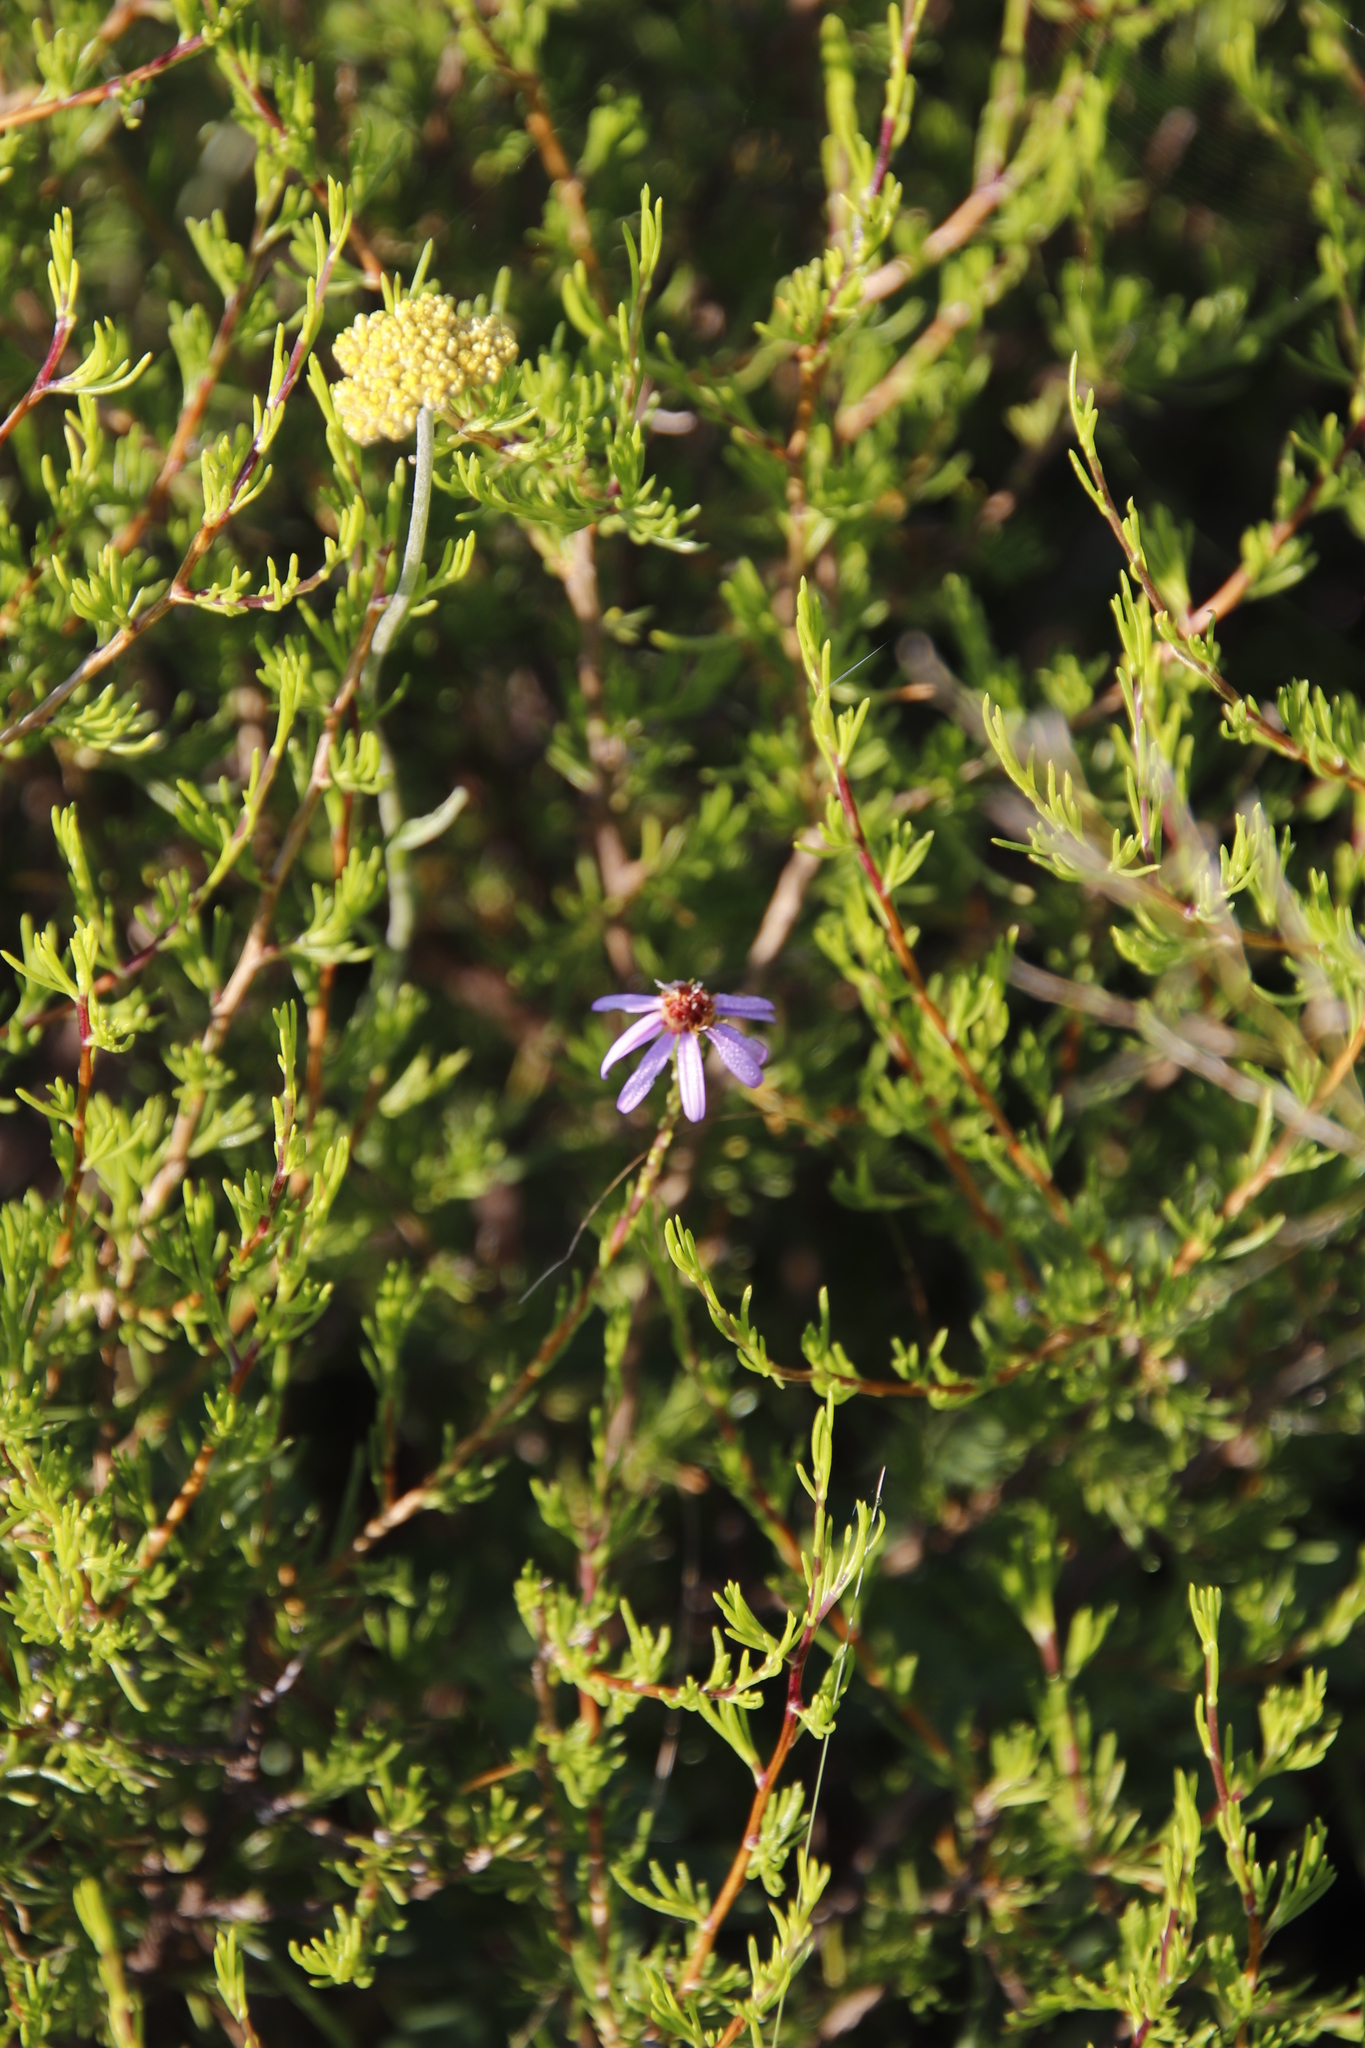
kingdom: Plantae
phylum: Tracheophyta
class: Magnoliopsida
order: Asterales
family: Asteraceae
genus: Felicia
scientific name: Felicia filifolia
